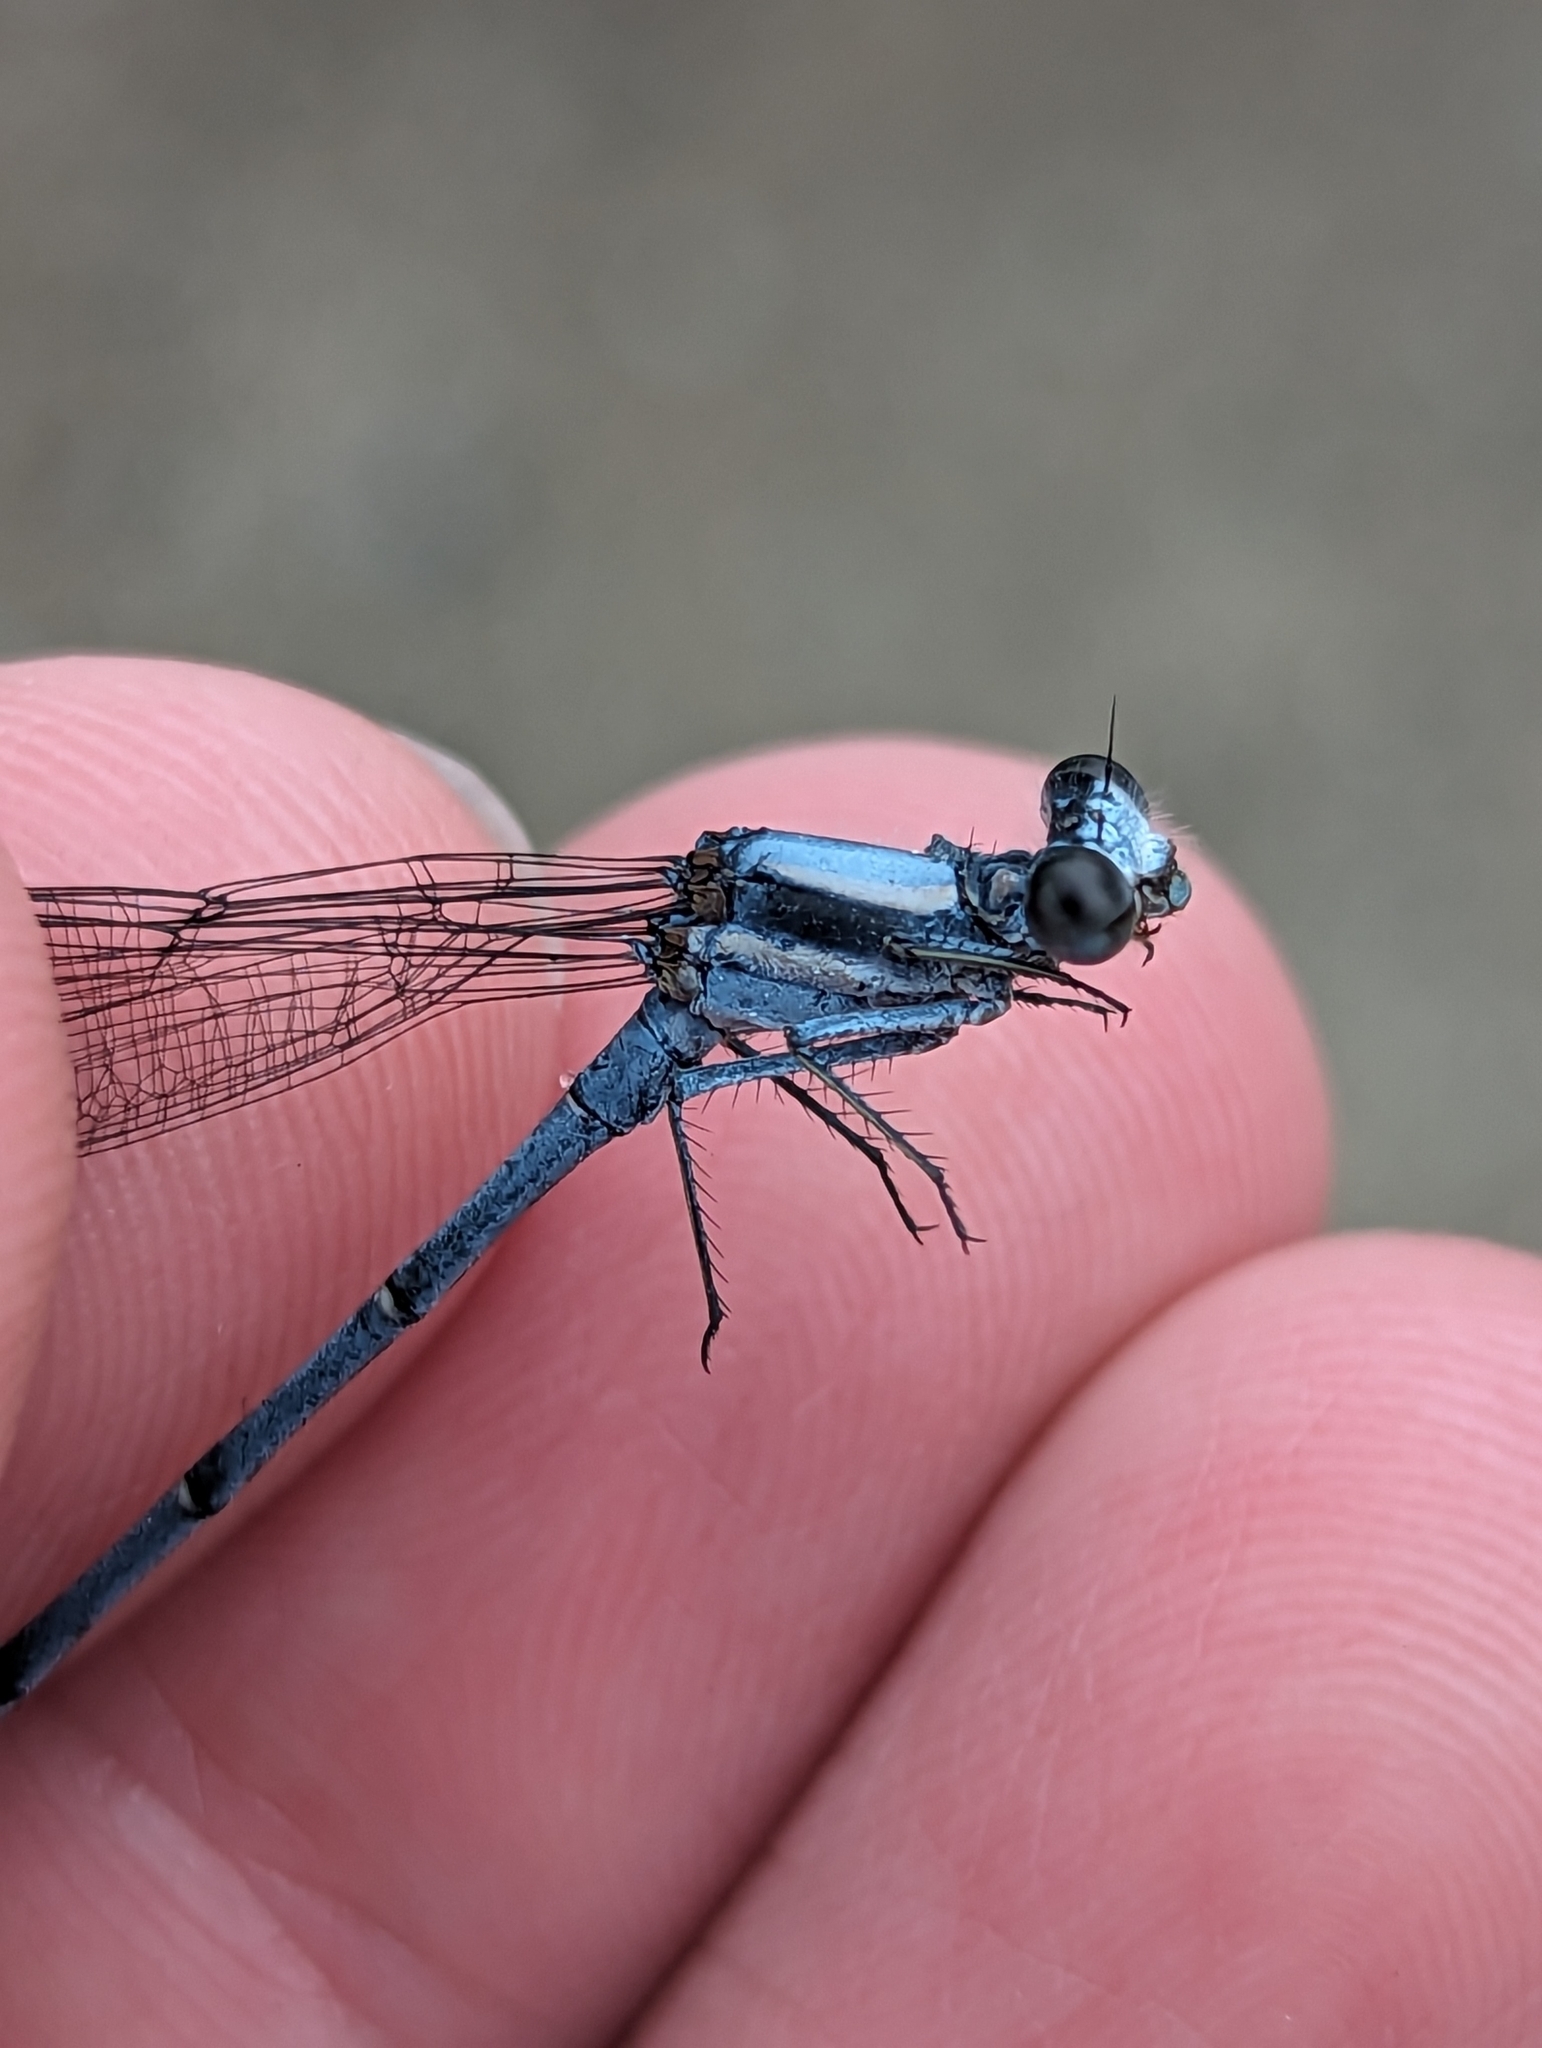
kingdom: Animalia
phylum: Arthropoda
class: Insecta
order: Odonata
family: Coenagrionidae
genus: Argia
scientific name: Argia moesta
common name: Powdered dancer
